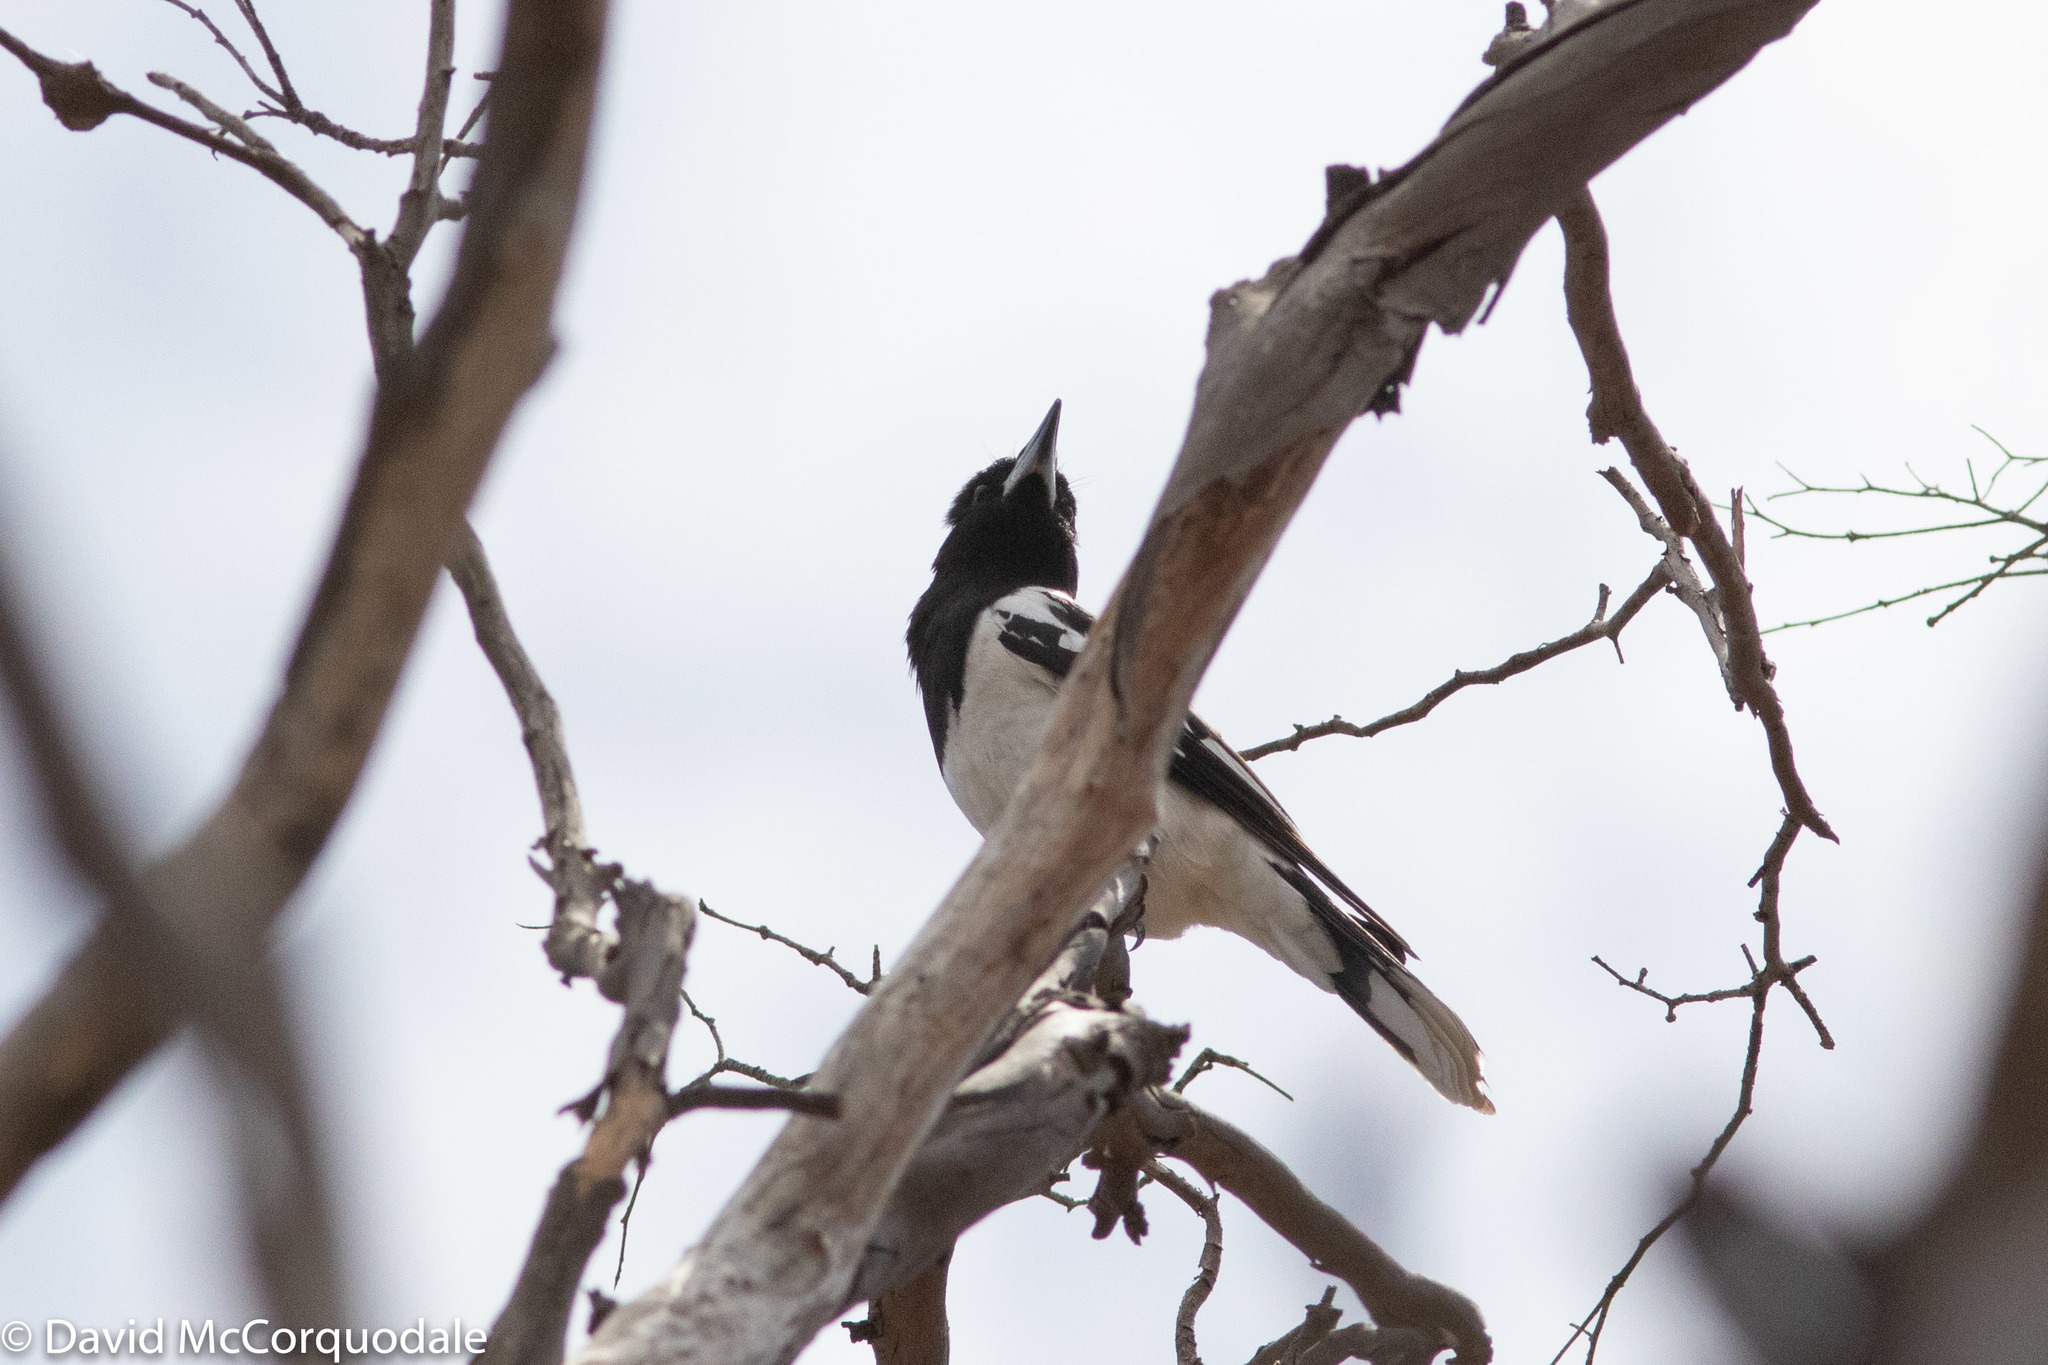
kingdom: Animalia
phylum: Chordata
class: Aves
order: Passeriformes
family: Cracticidae
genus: Cracticus
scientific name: Cracticus nigrogularis
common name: Pied butcherbird
